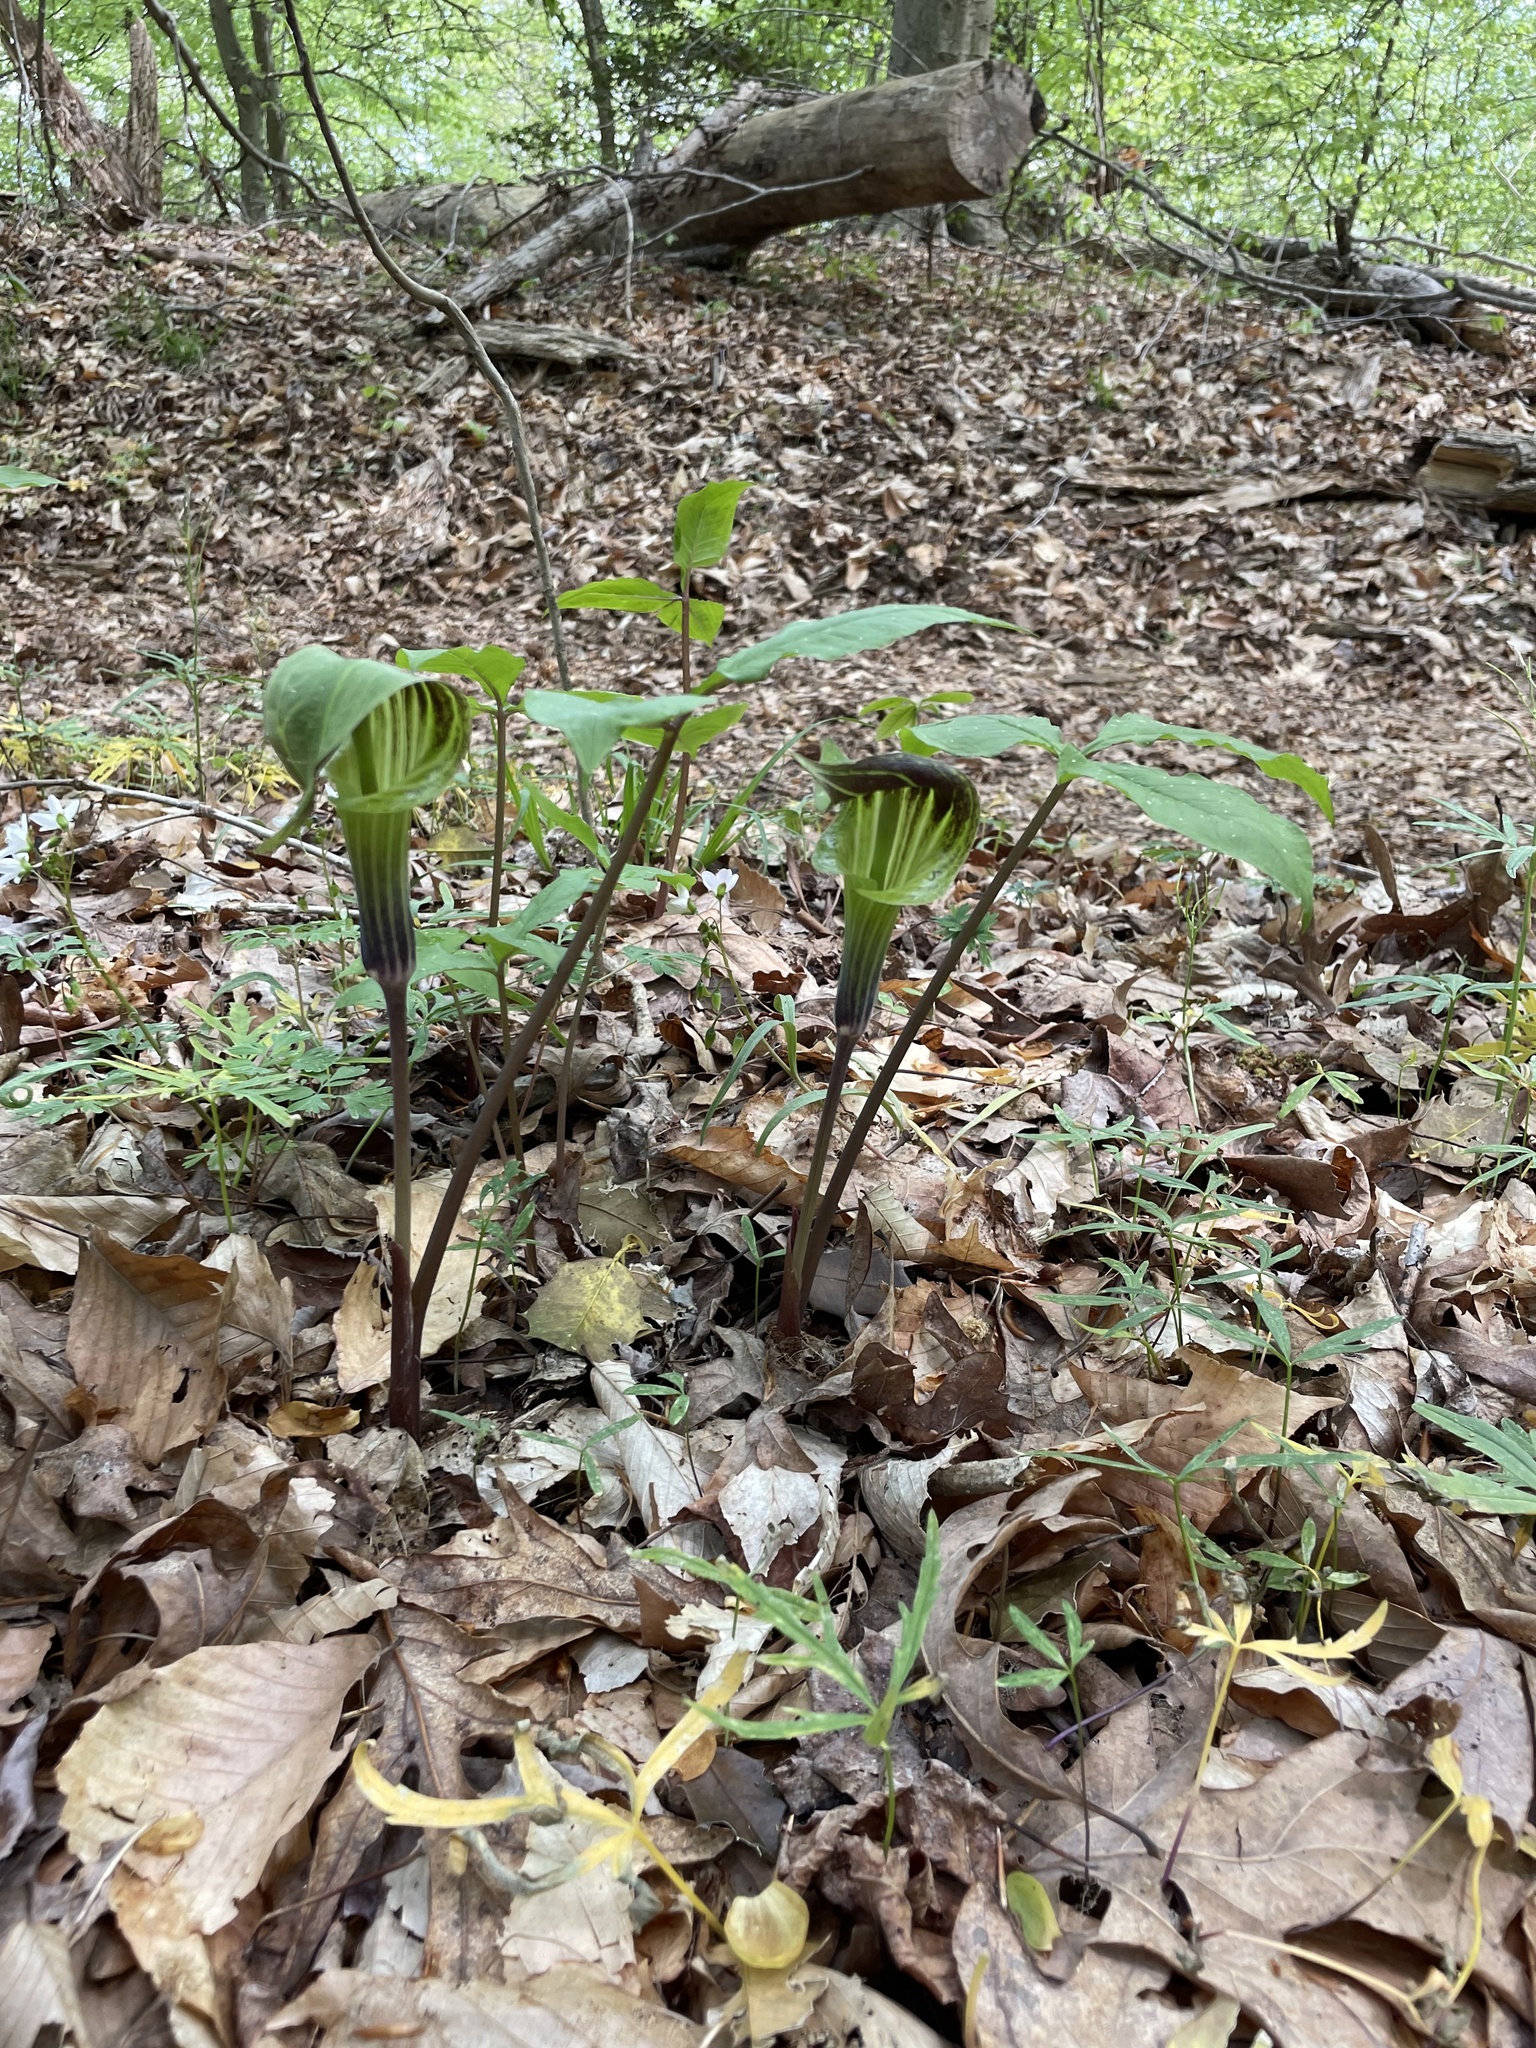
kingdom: Plantae
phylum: Tracheophyta
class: Liliopsida
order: Alismatales
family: Araceae
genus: Arisaema
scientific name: Arisaema triphyllum
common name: Jack-in-the-pulpit
